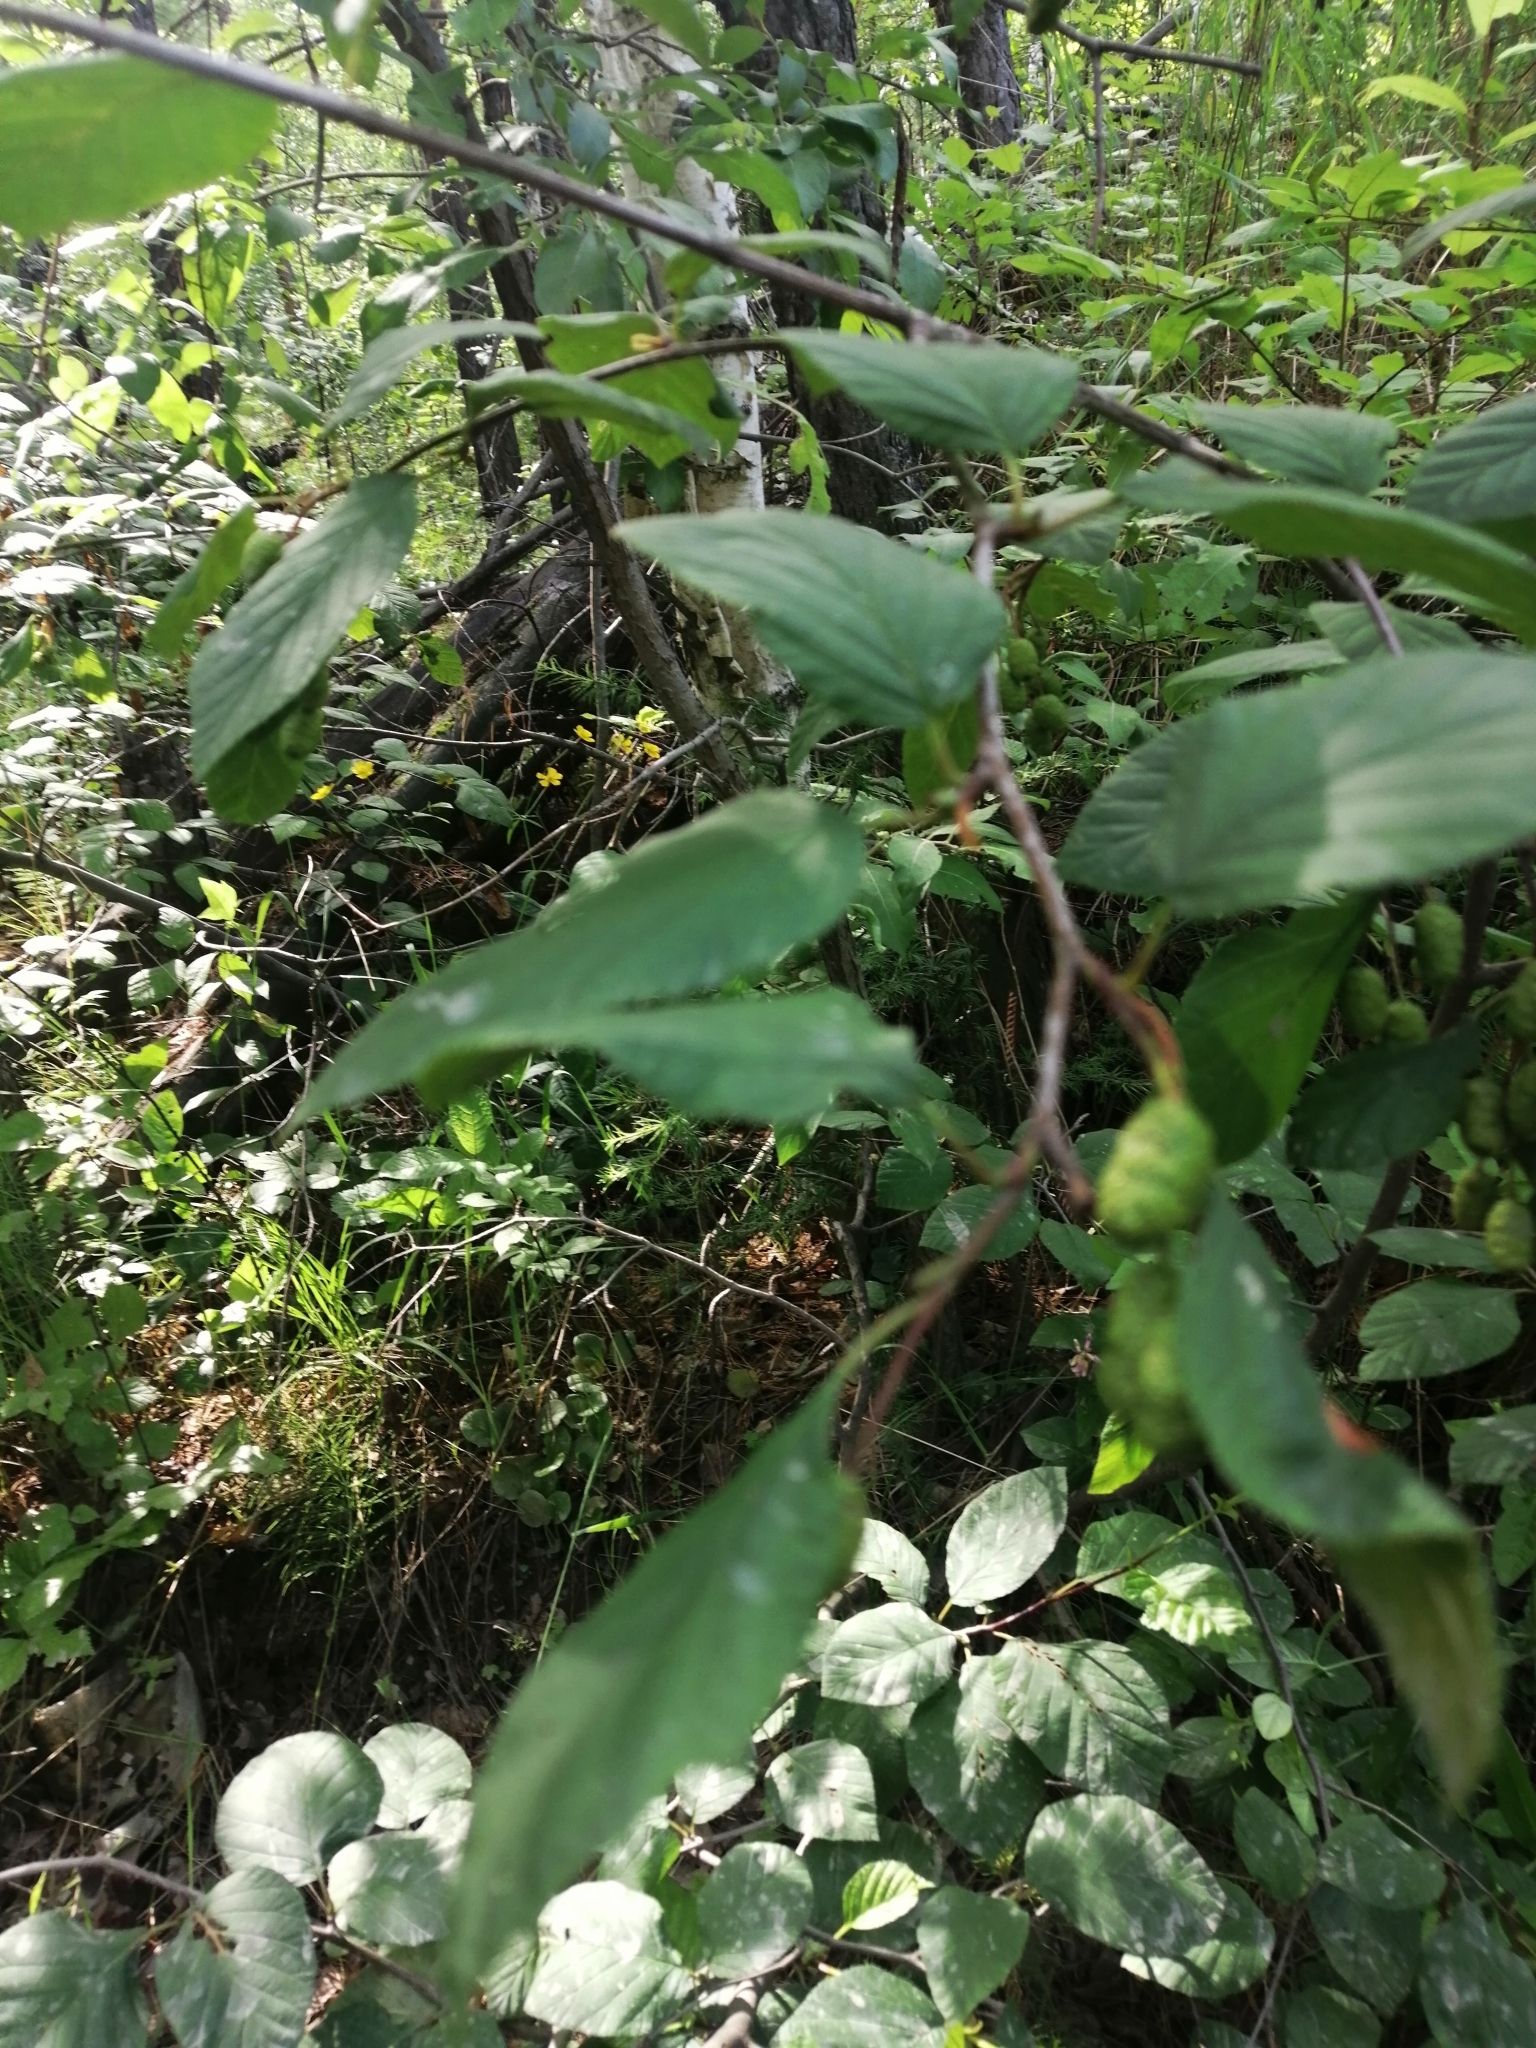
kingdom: Plantae
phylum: Tracheophyta
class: Magnoliopsida
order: Fagales
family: Betulaceae
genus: Alnus
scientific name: Alnus alnobetula
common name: Green alder
